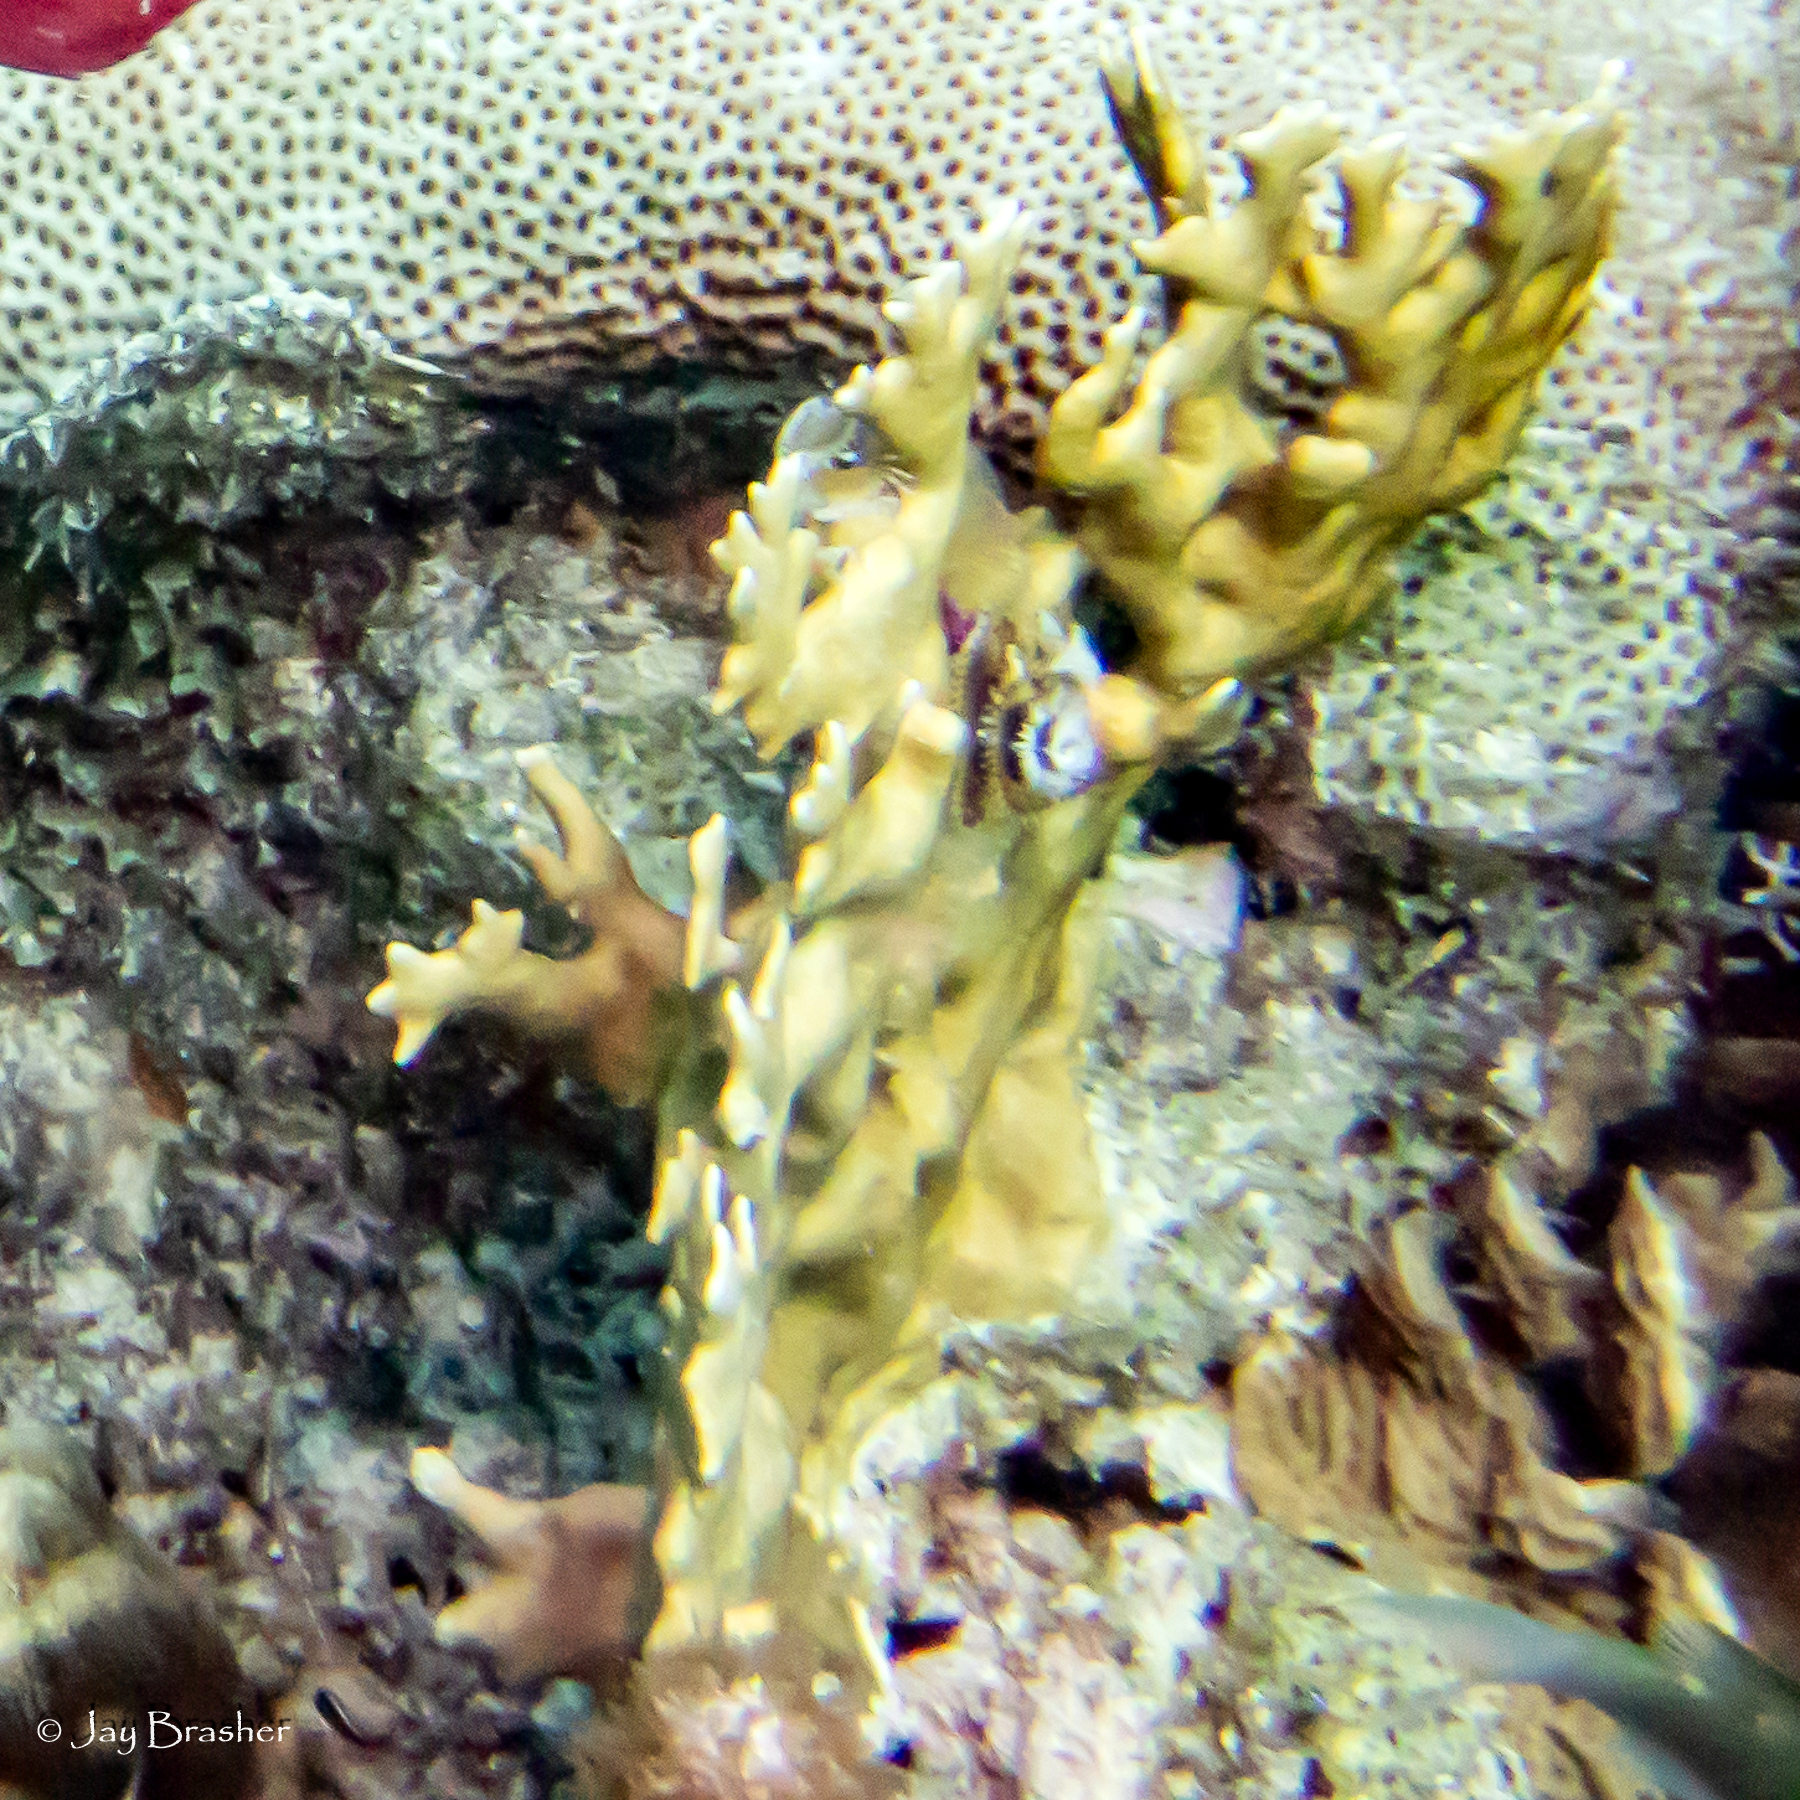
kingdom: Animalia
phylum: Cnidaria
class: Hydrozoa
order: Anthoathecata
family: Milleporidae
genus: Millepora
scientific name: Millepora alcicornis
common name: Branching fire coral
